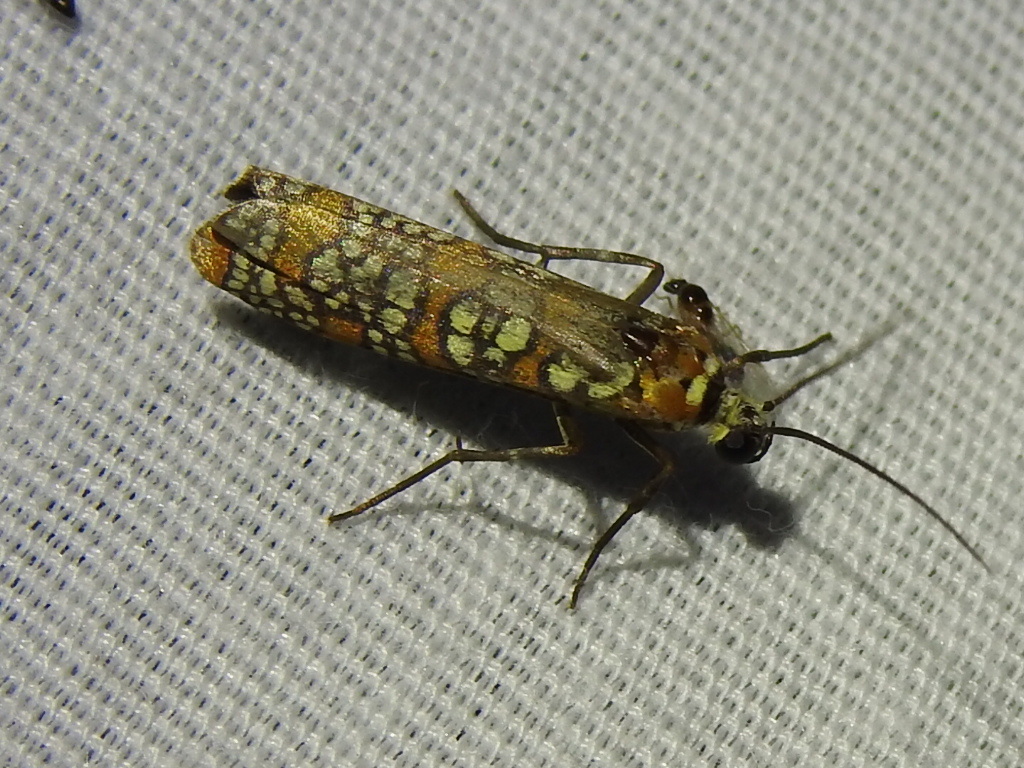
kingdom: Animalia
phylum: Arthropoda
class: Insecta
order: Lepidoptera
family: Attevidae
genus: Atteva
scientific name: Atteva punctella
